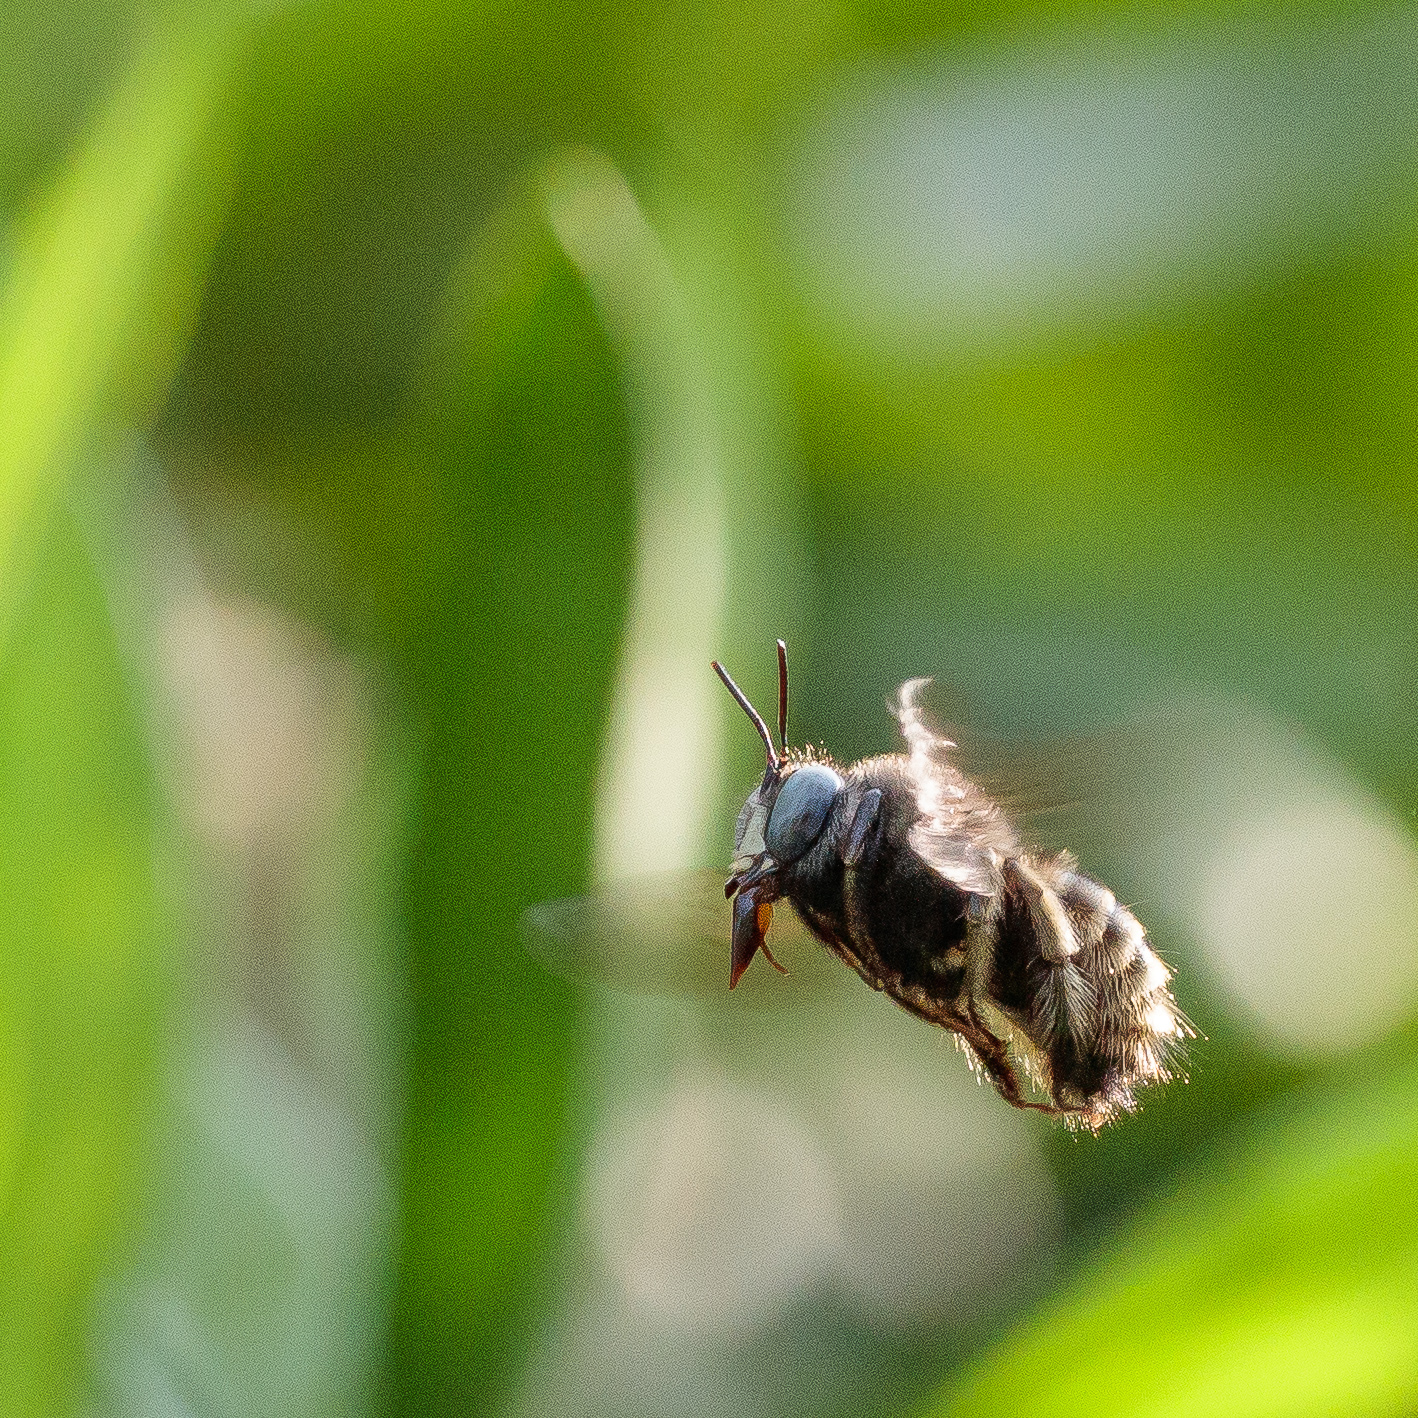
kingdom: Animalia
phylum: Arthropoda
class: Insecta
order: Hymenoptera
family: Apidae
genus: Xylocopa
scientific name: Xylocopa tabaniformis
